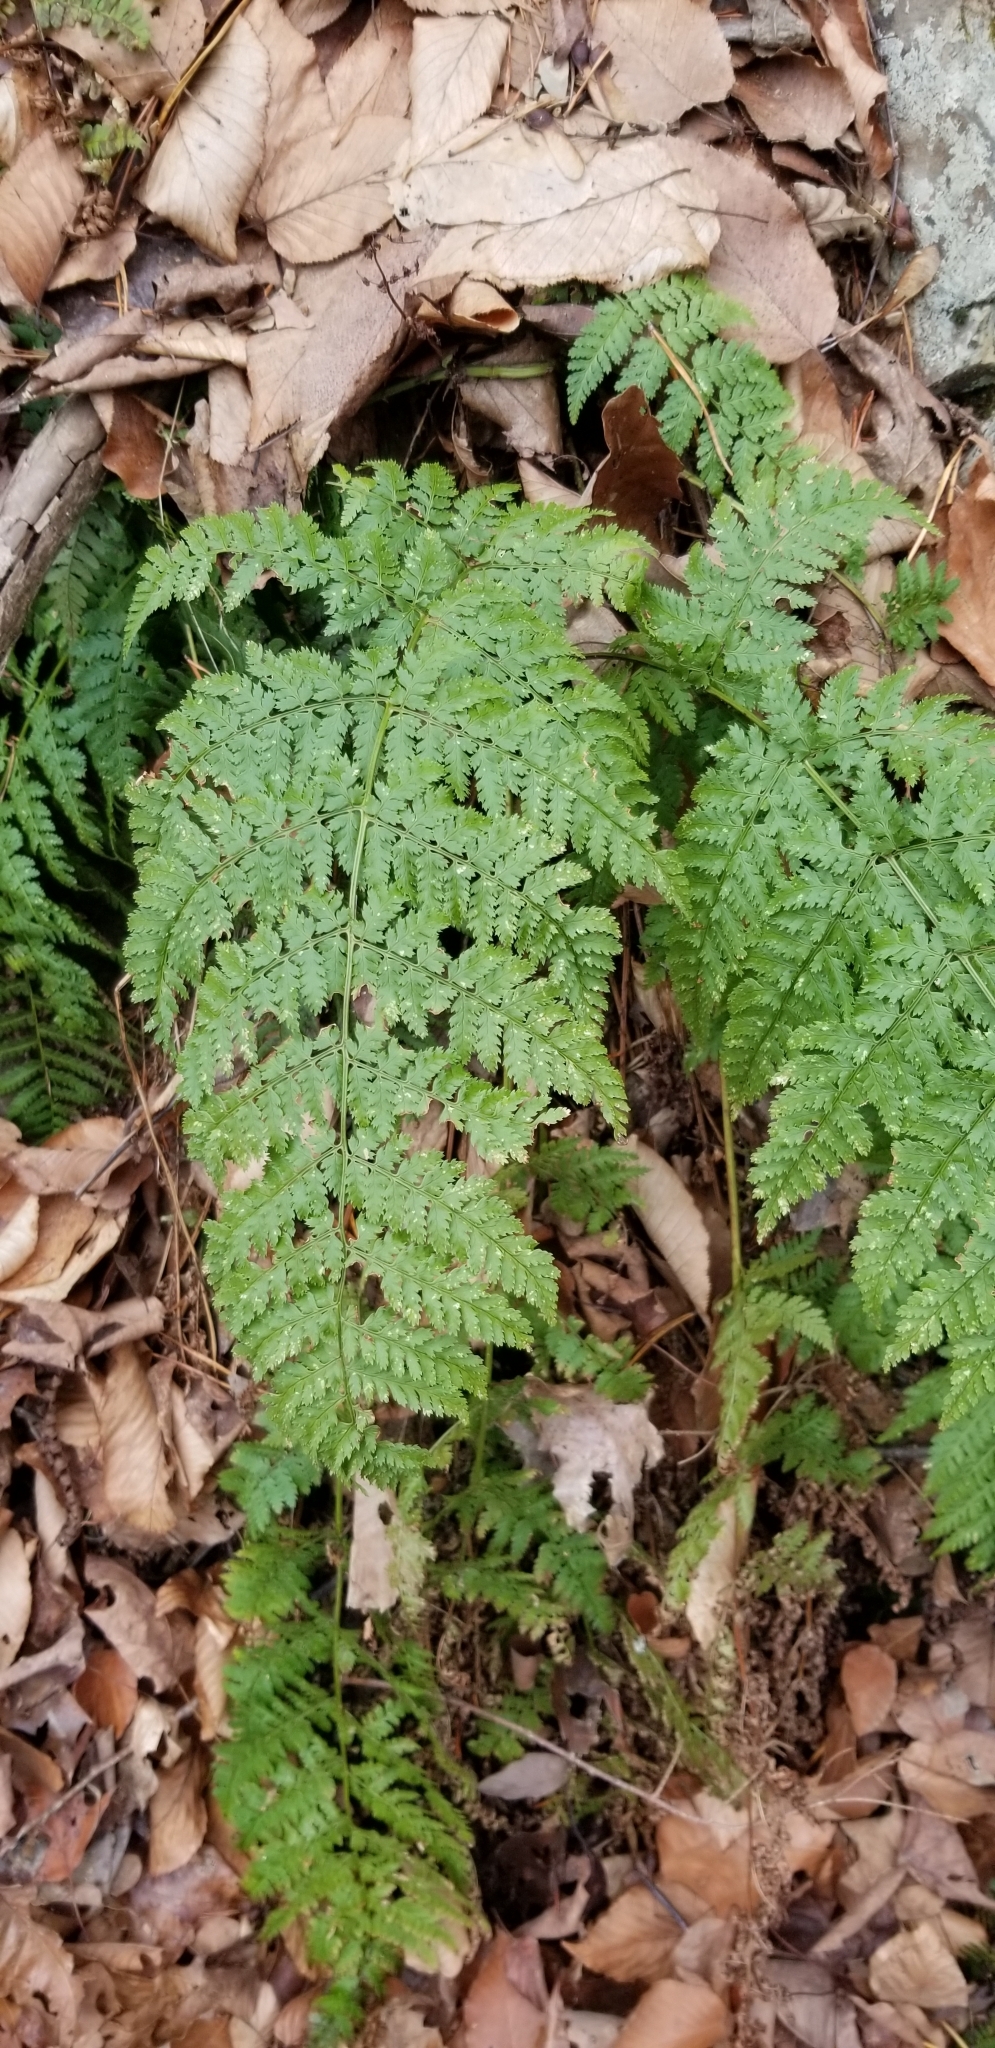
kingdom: Plantae
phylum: Tracheophyta
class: Polypodiopsida
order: Polypodiales
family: Dryopteridaceae
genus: Dryopteris
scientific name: Dryopteris intermedia
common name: Evergreen wood fern
